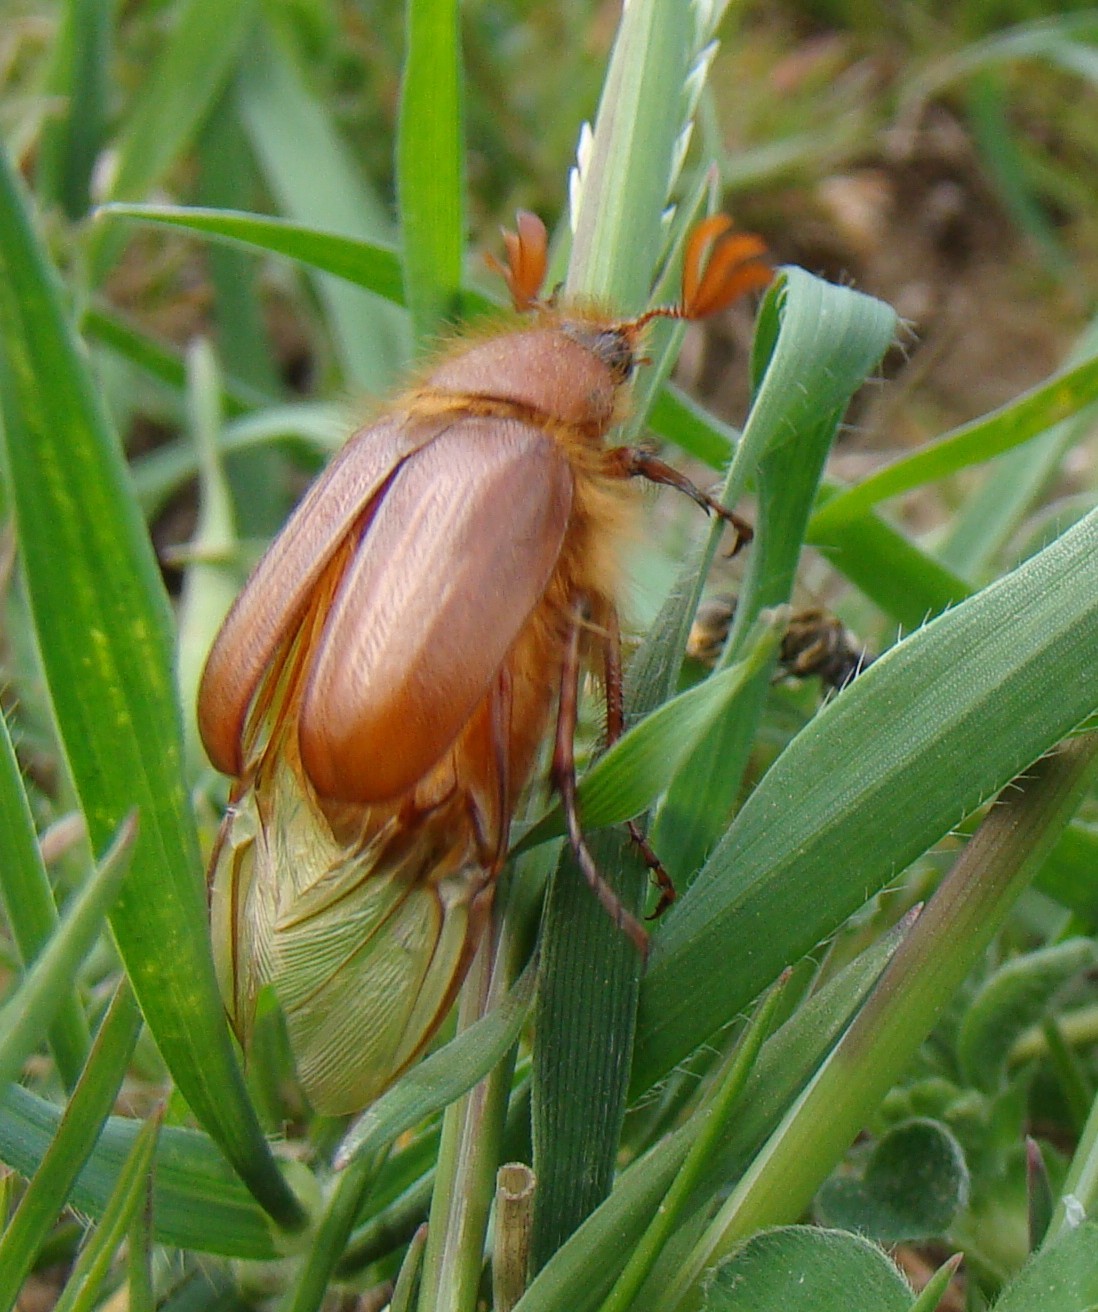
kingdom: Animalia
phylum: Arthropoda
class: Insecta
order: Coleoptera
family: Scarabaeidae
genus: Holochelus
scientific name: Holochelus aequinoctialis
